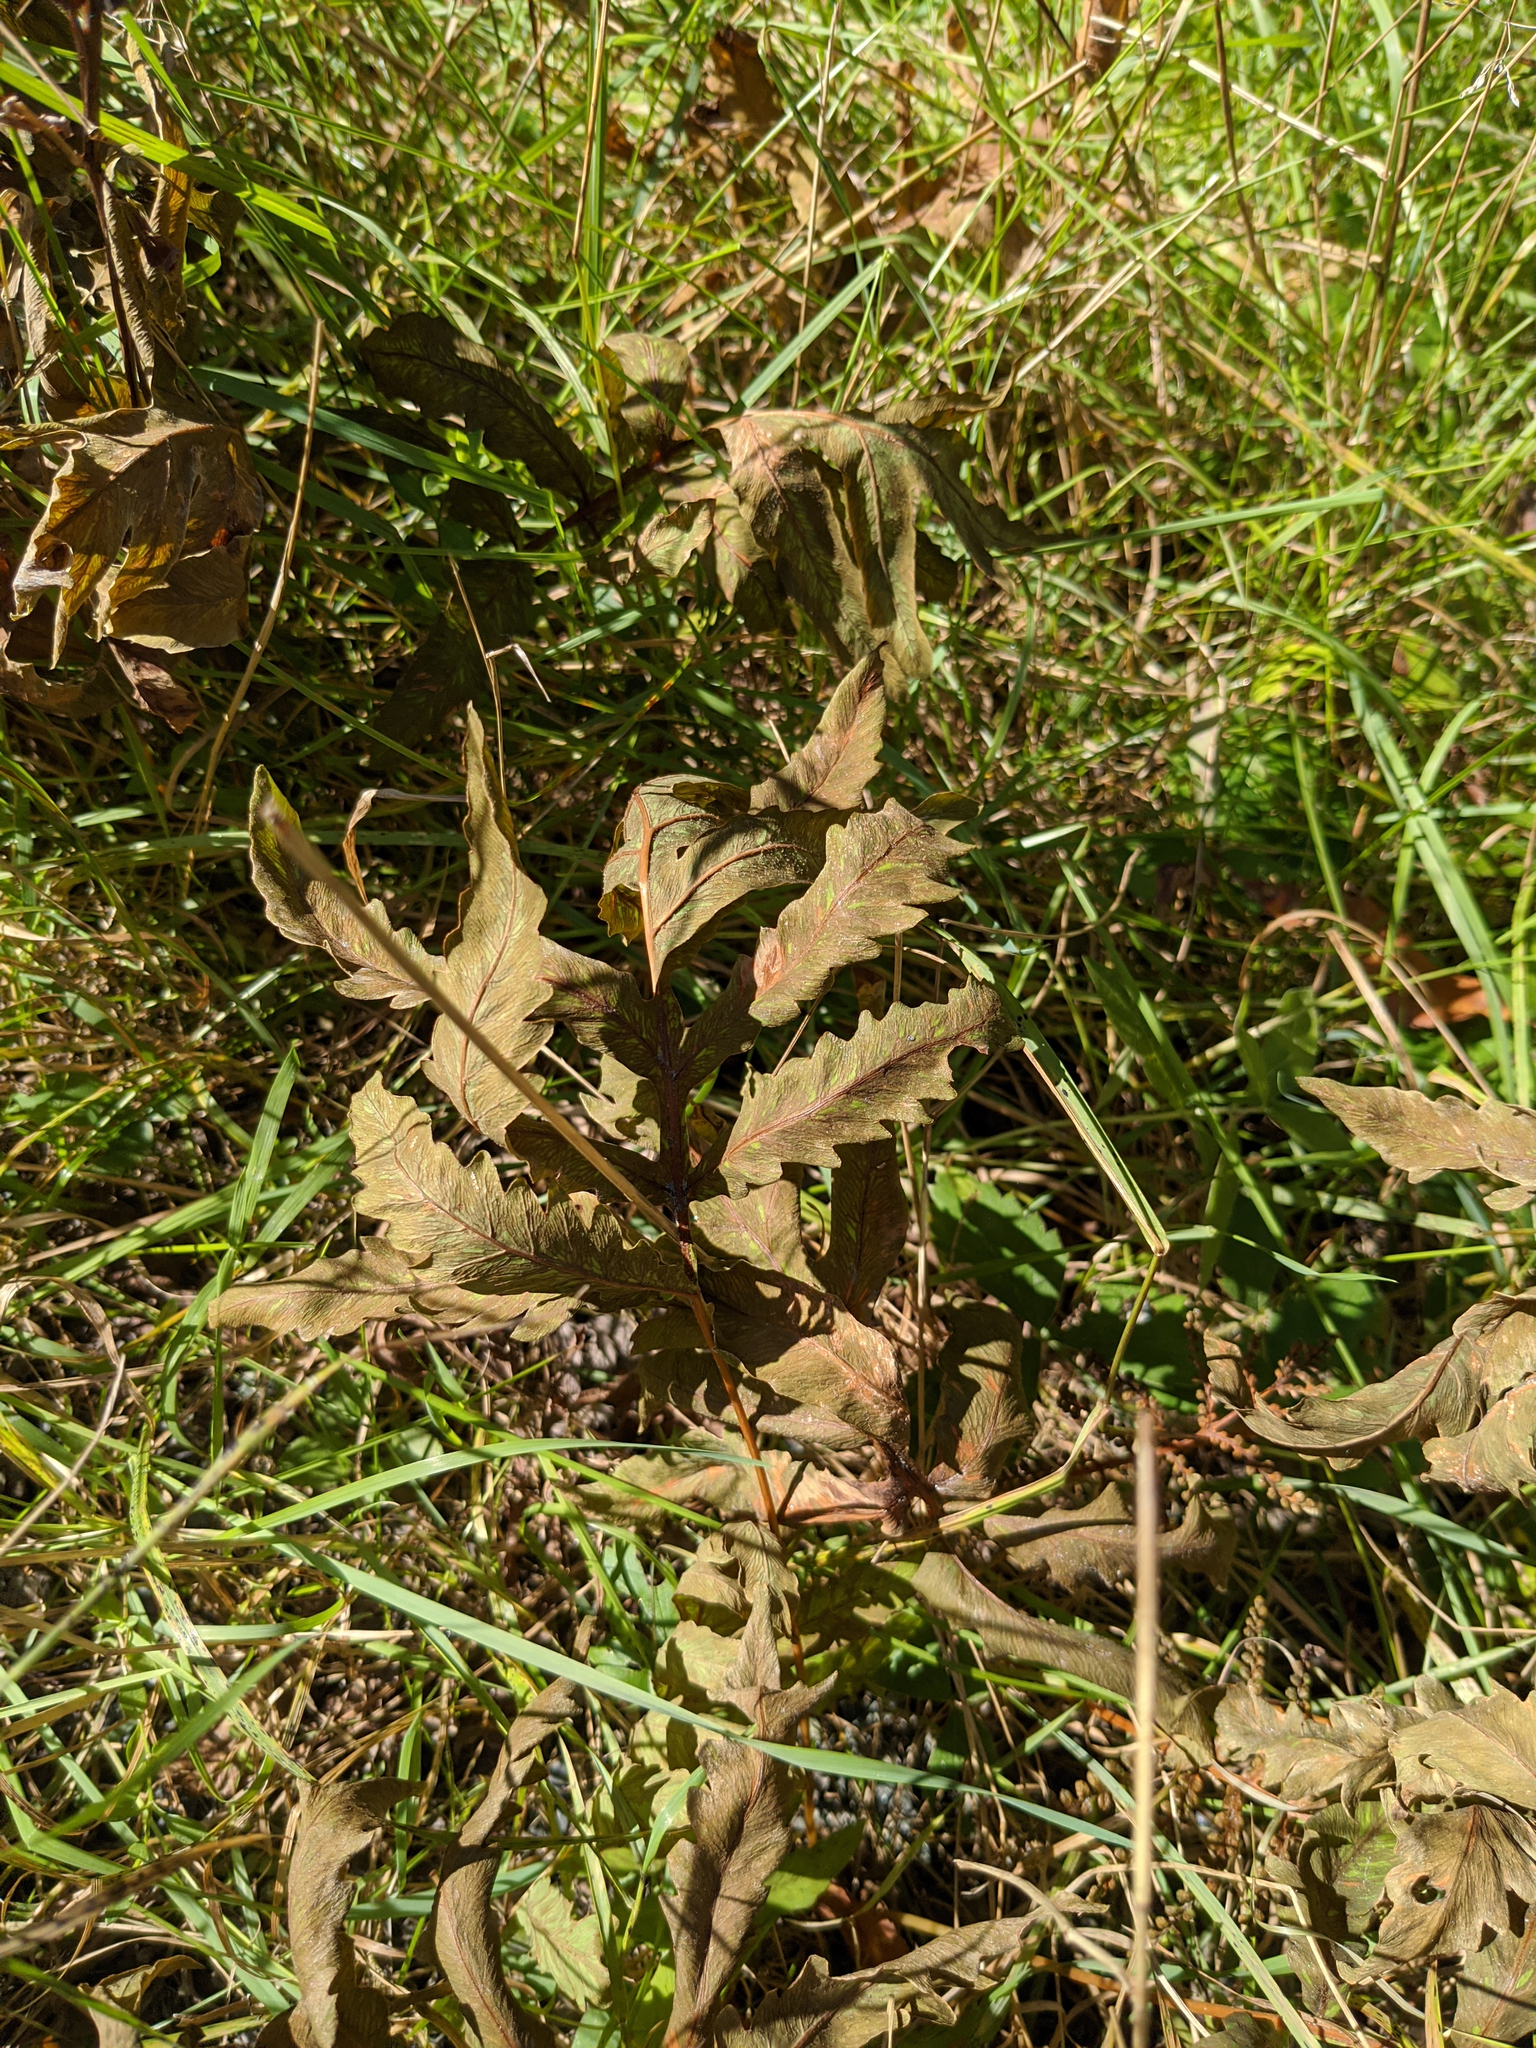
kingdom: Plantae
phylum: Tracheophyta
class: Polypodiopsida
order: Polypodiales
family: Onocleaceae
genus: Onoclea
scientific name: Onoclea sensibilis
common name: Sensitive fern
